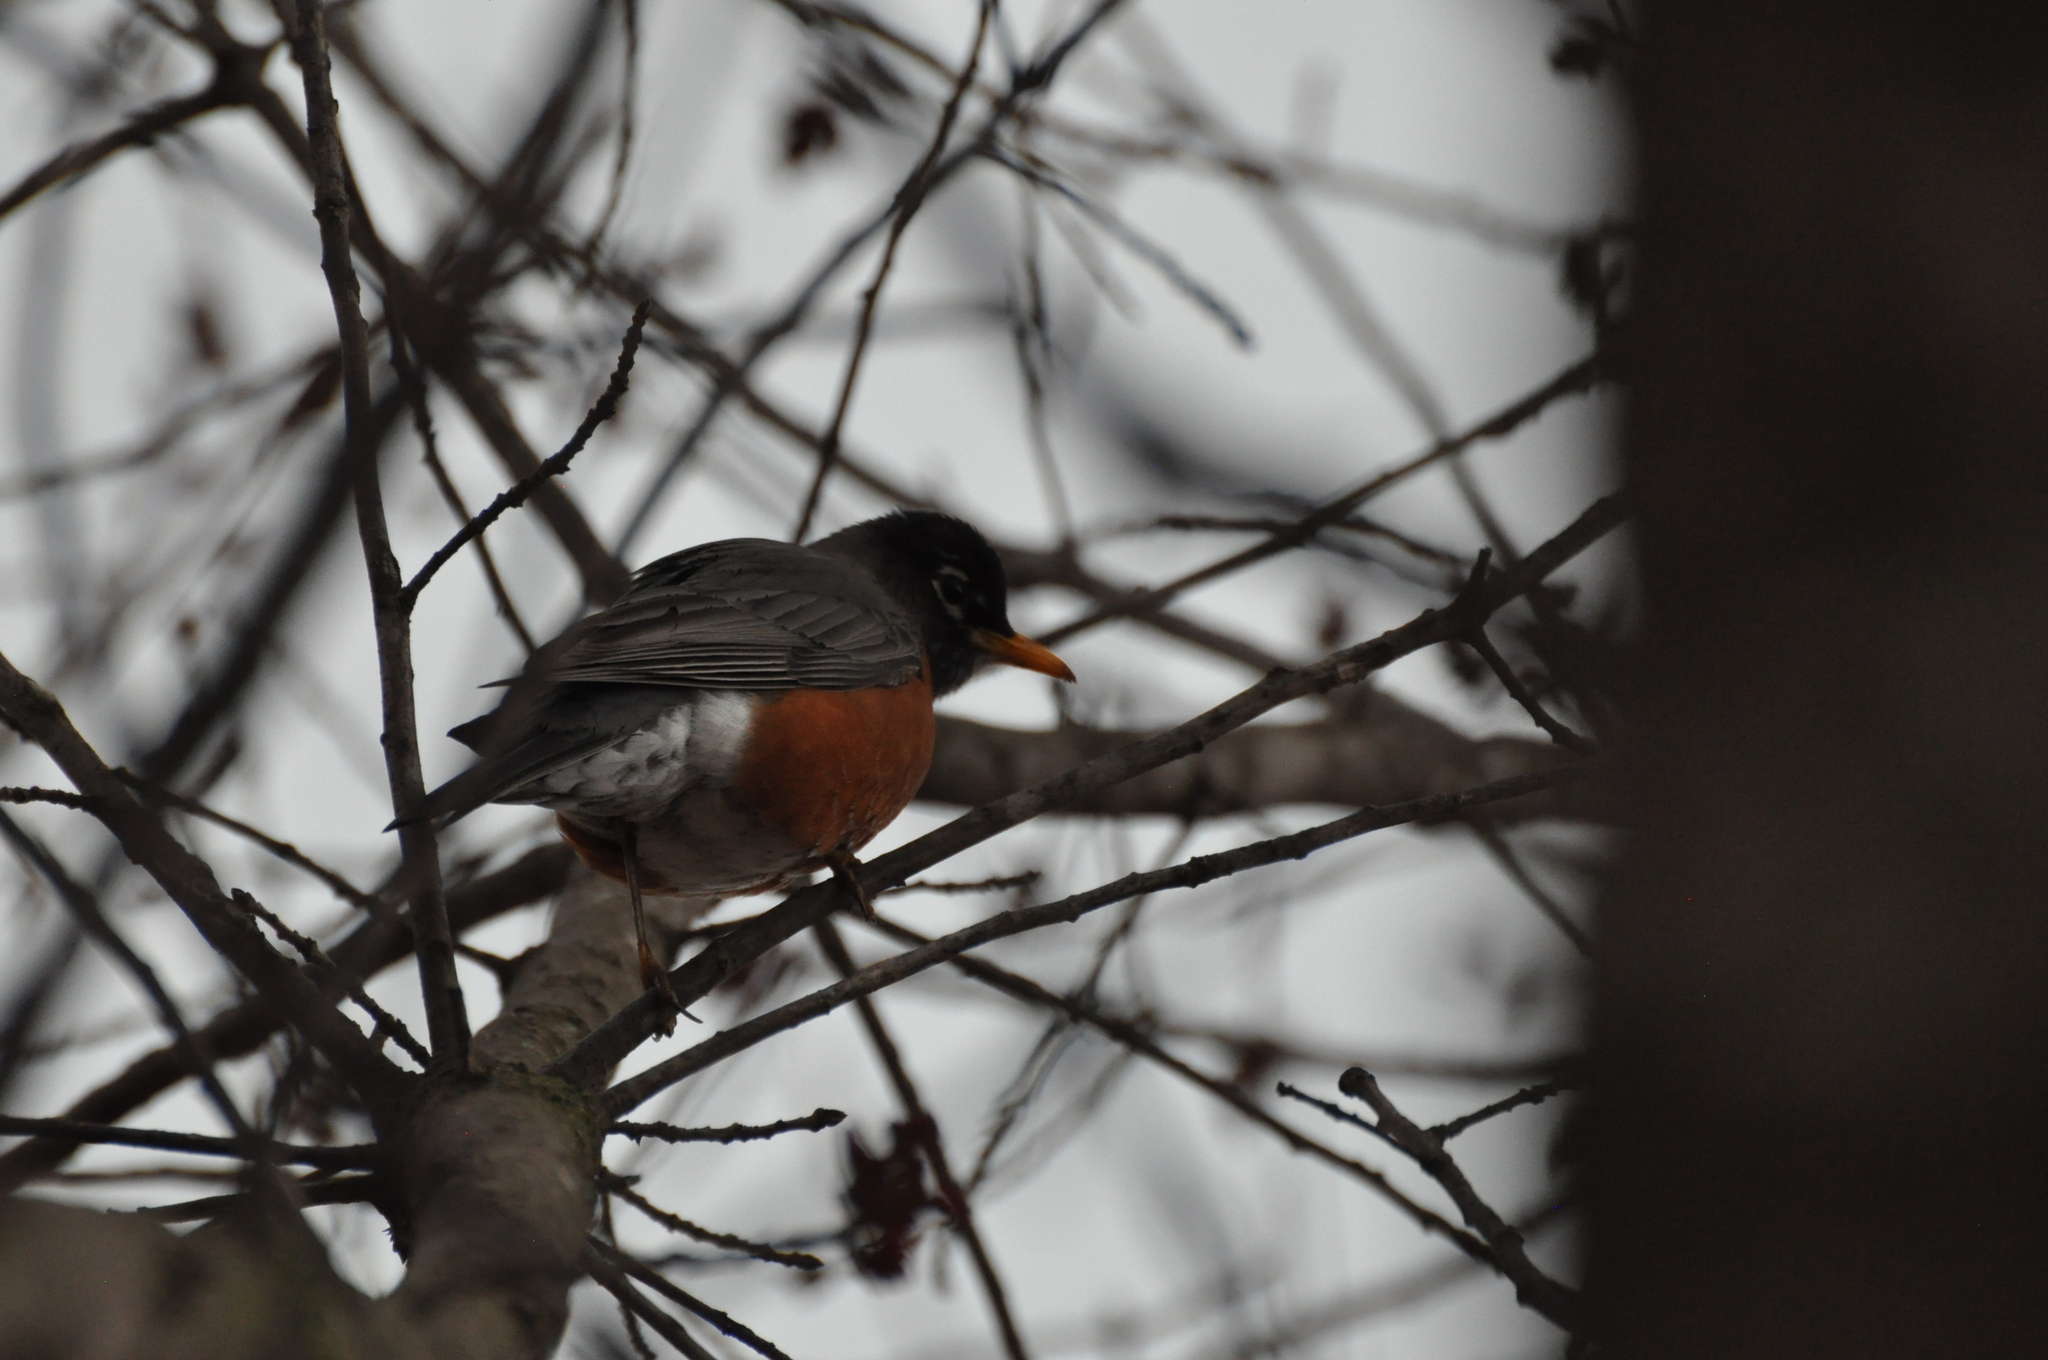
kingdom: Animalia
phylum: Chordata
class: Aves
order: Passeriformes
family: Turdidae
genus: Turdus
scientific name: Turdus migratorius
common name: American robin
